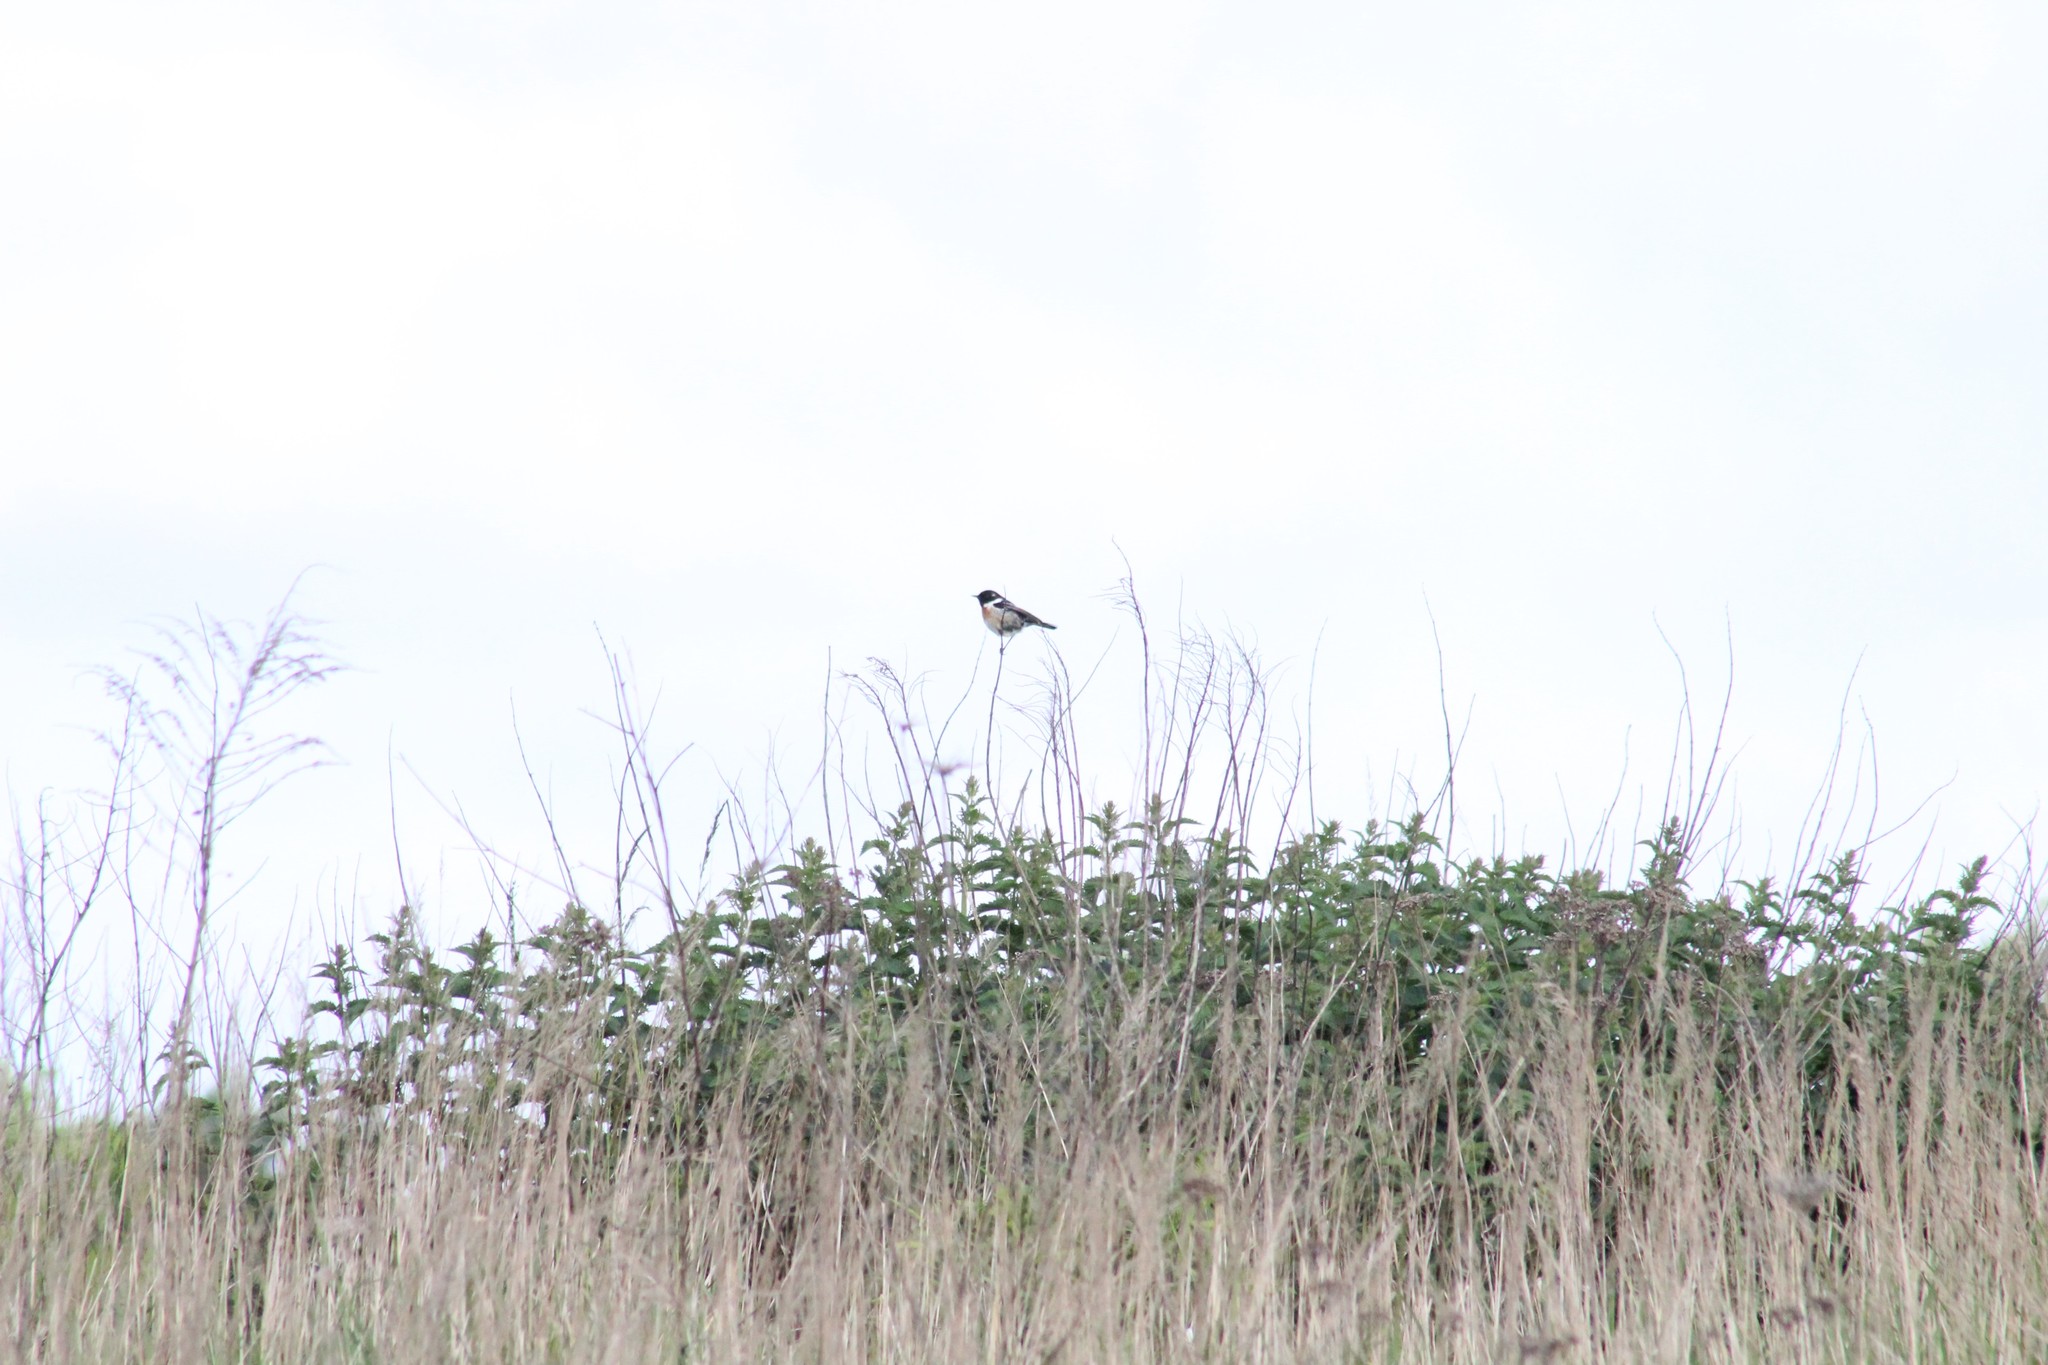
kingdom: Animalia
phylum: Chordata
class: Aves
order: Passeriformes
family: Muscicapidae
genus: Saxicola
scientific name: Saxicola rubicola
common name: European stonechat
